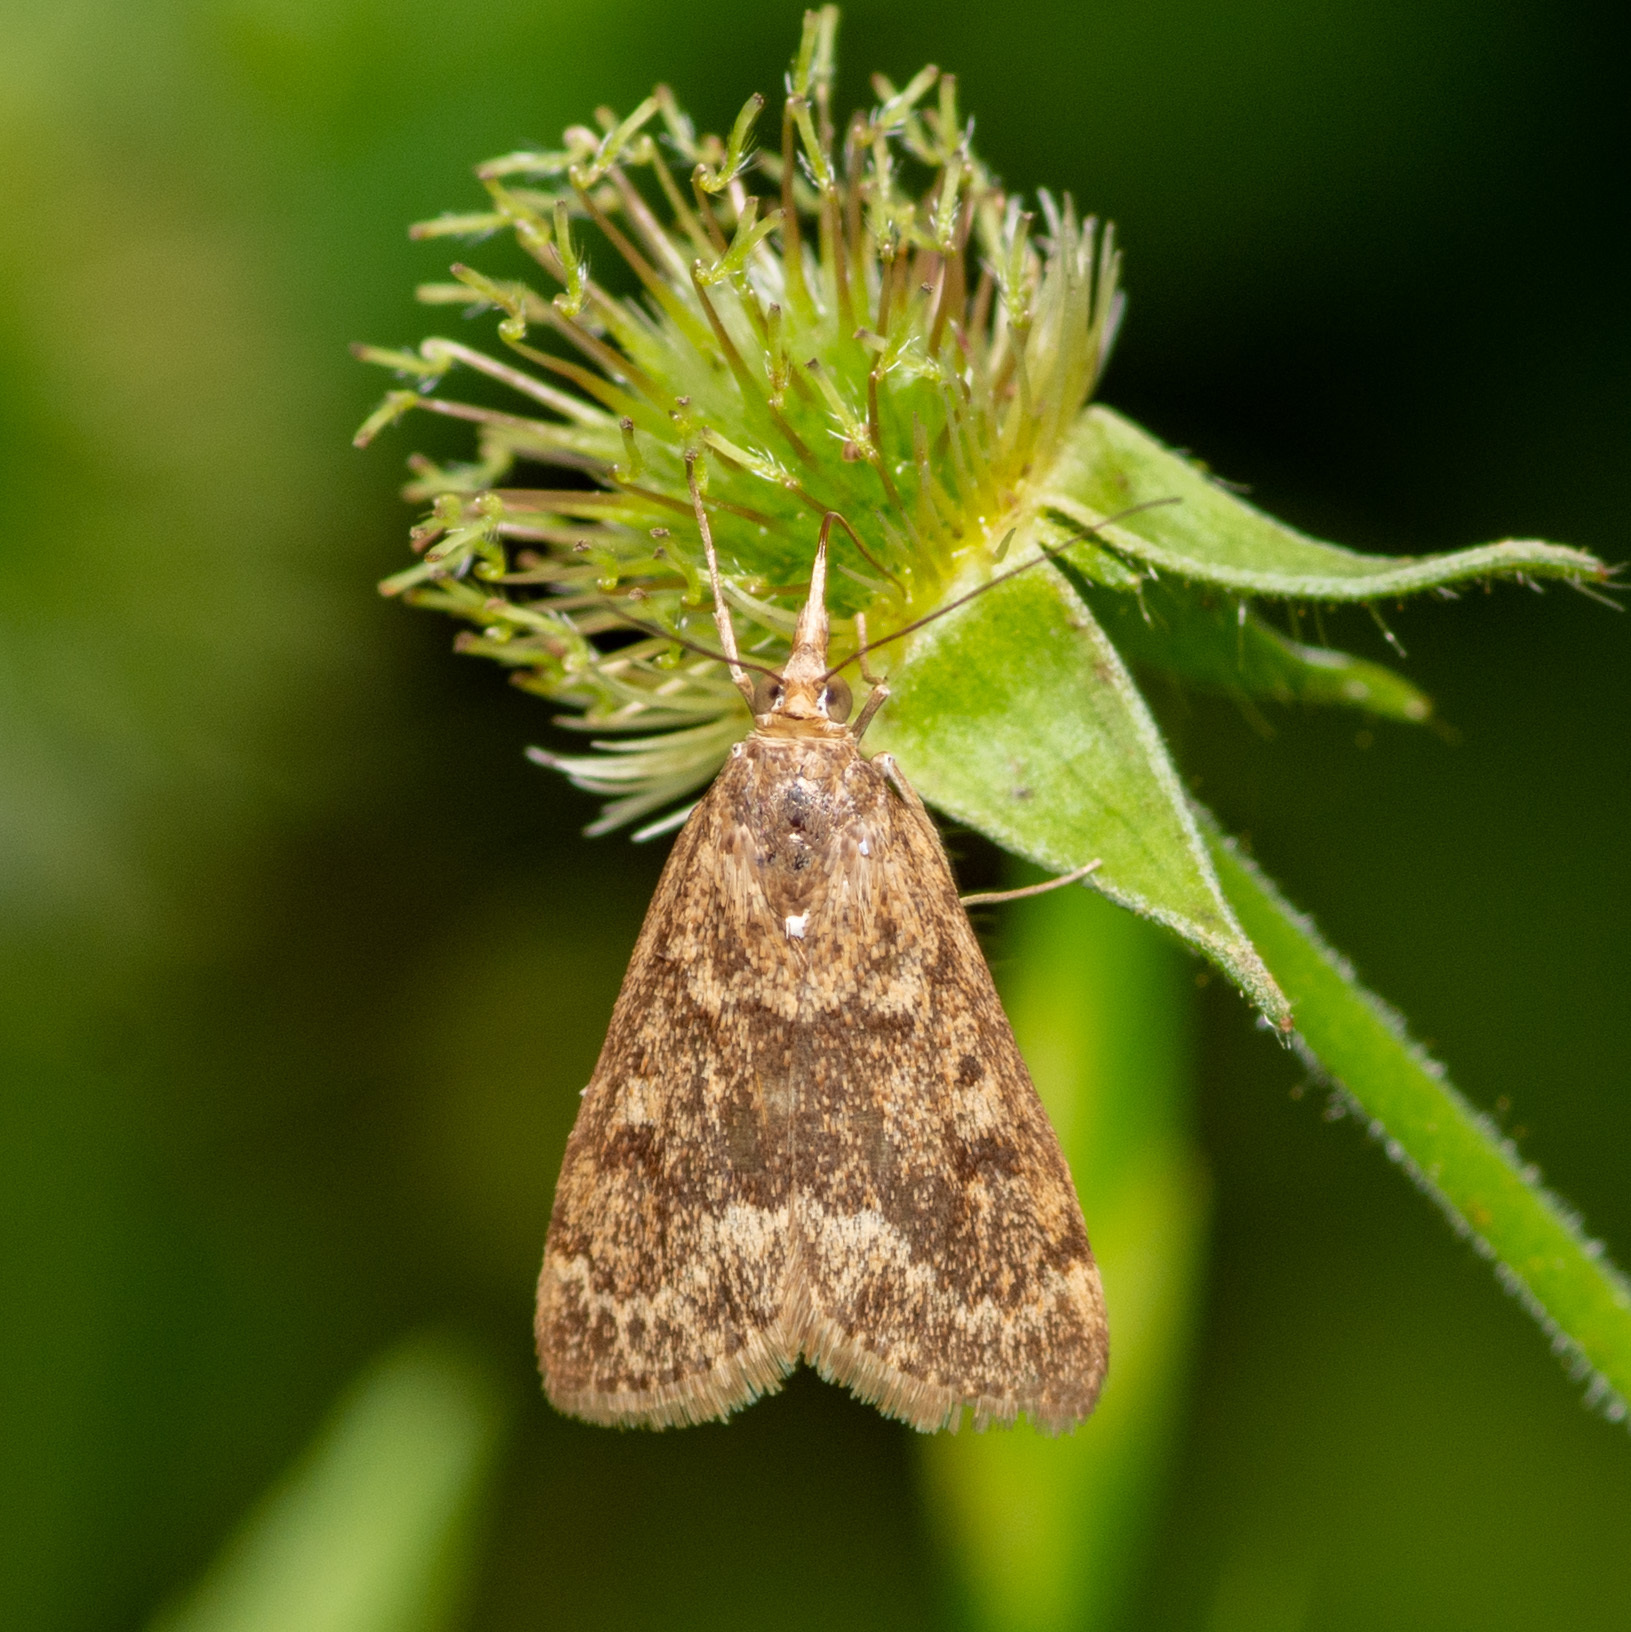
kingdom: Animalia
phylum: Arthropoda
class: Insecta
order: Lepidoptera
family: Crambidae
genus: Achyra
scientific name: Achyra rantalis
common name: Garden webworm
